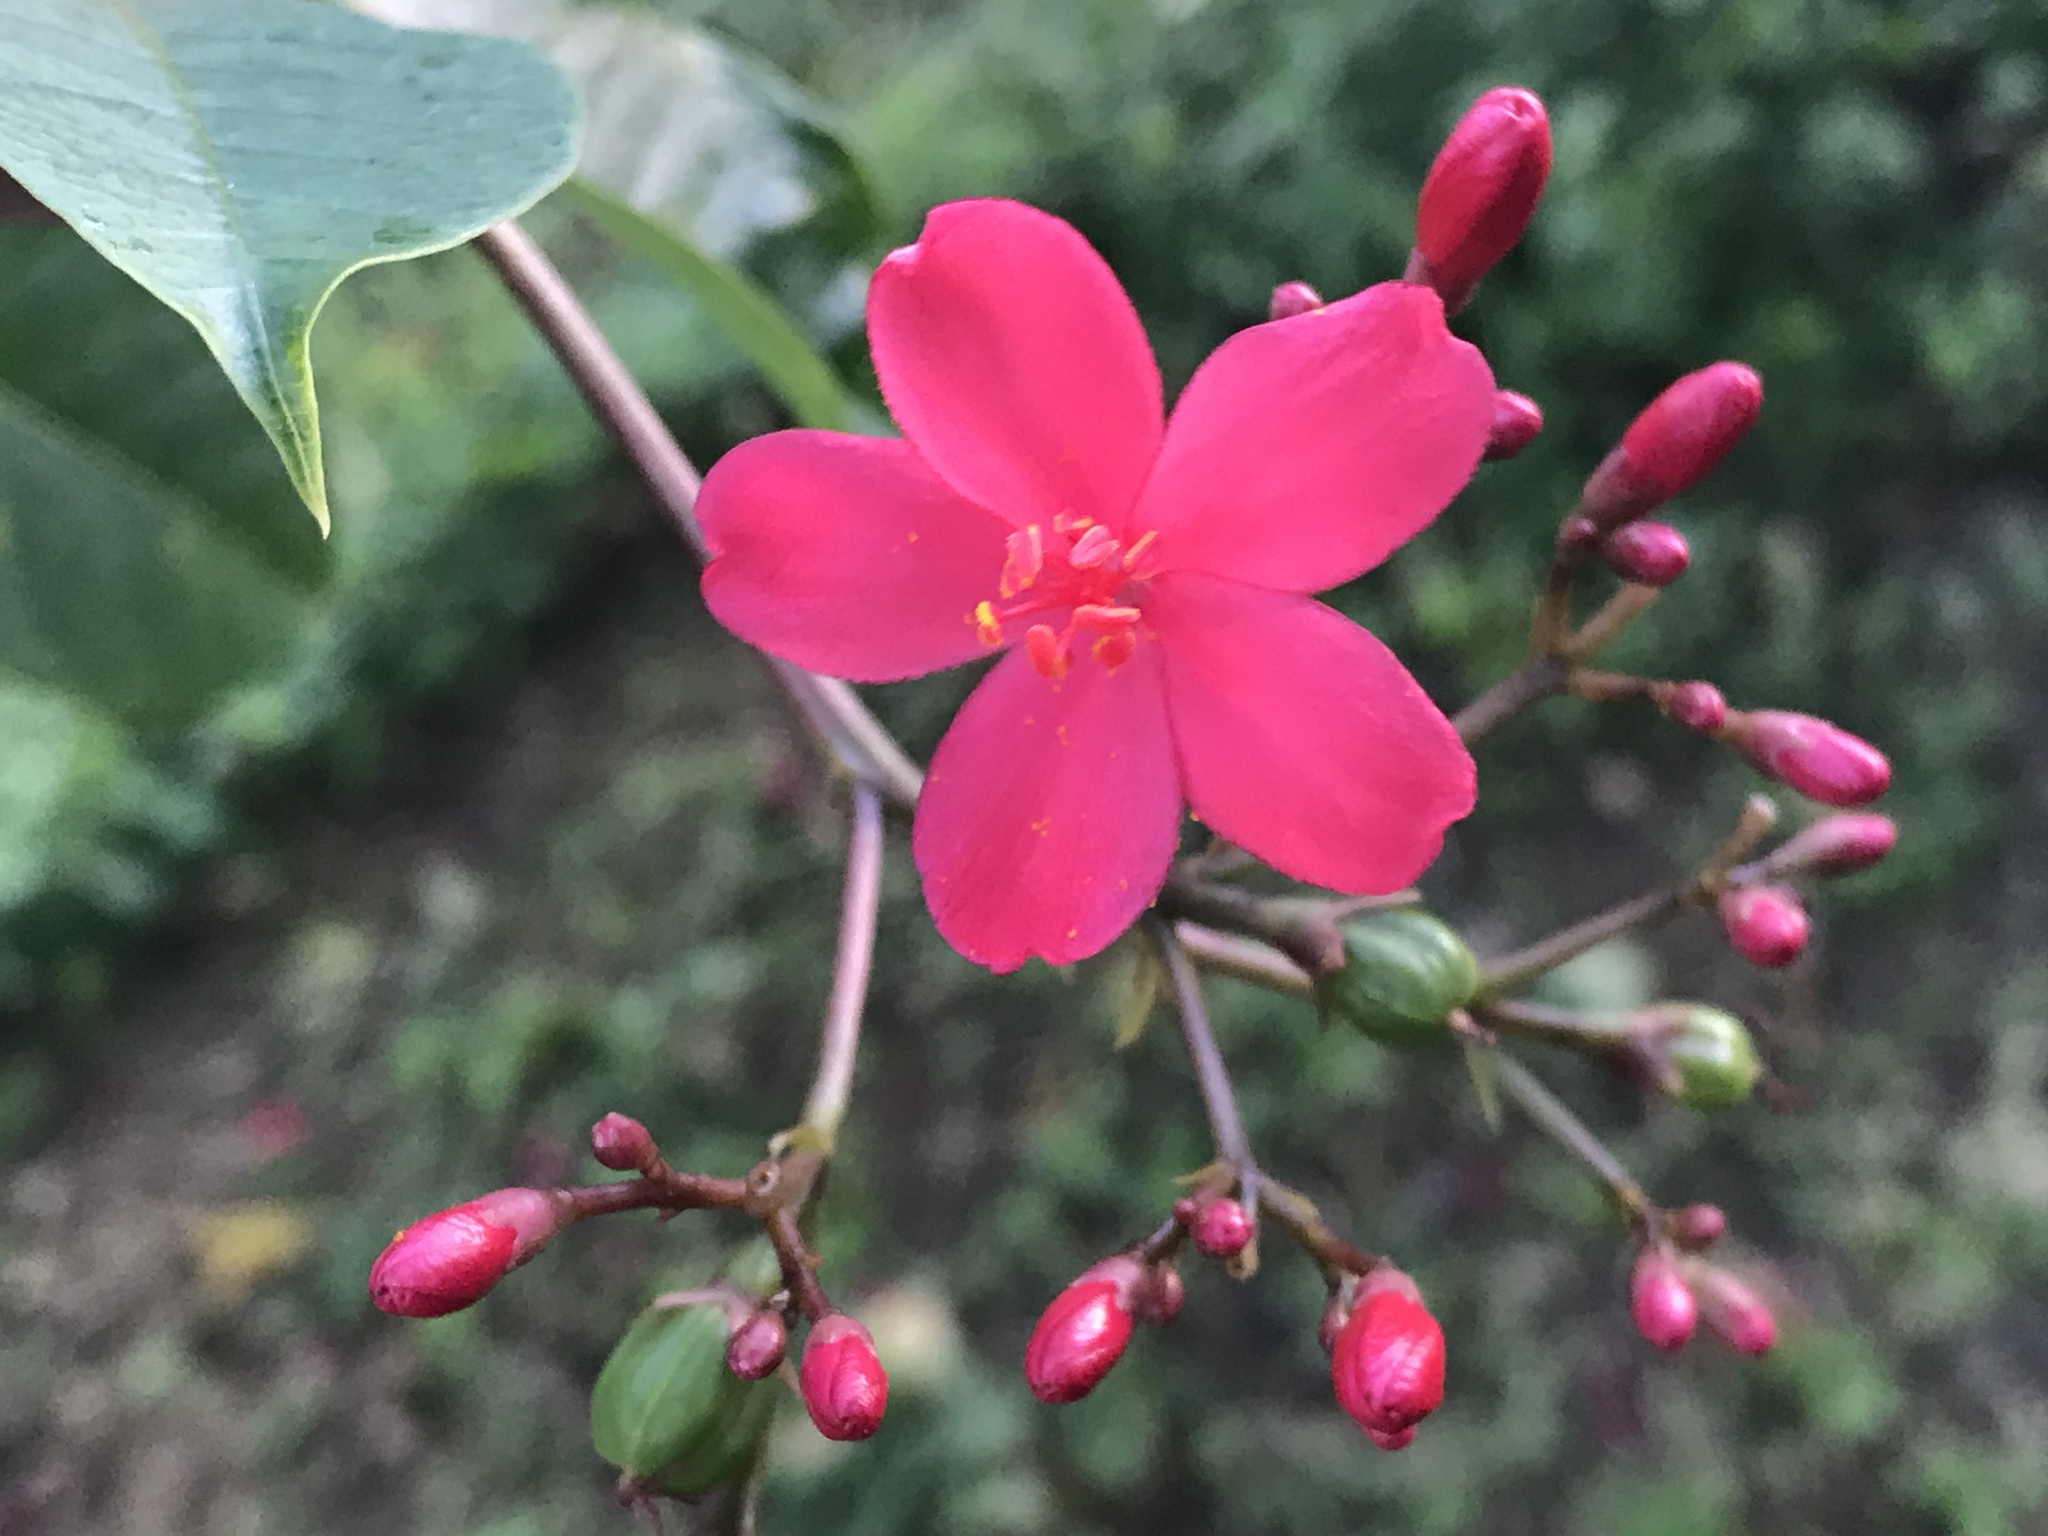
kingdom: Plantae
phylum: Tracheophyta
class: Magnoliopsida
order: Malpighiales
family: Euphorbiaceae
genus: Jatropha
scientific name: Jatropha integerrima
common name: Peregrina
